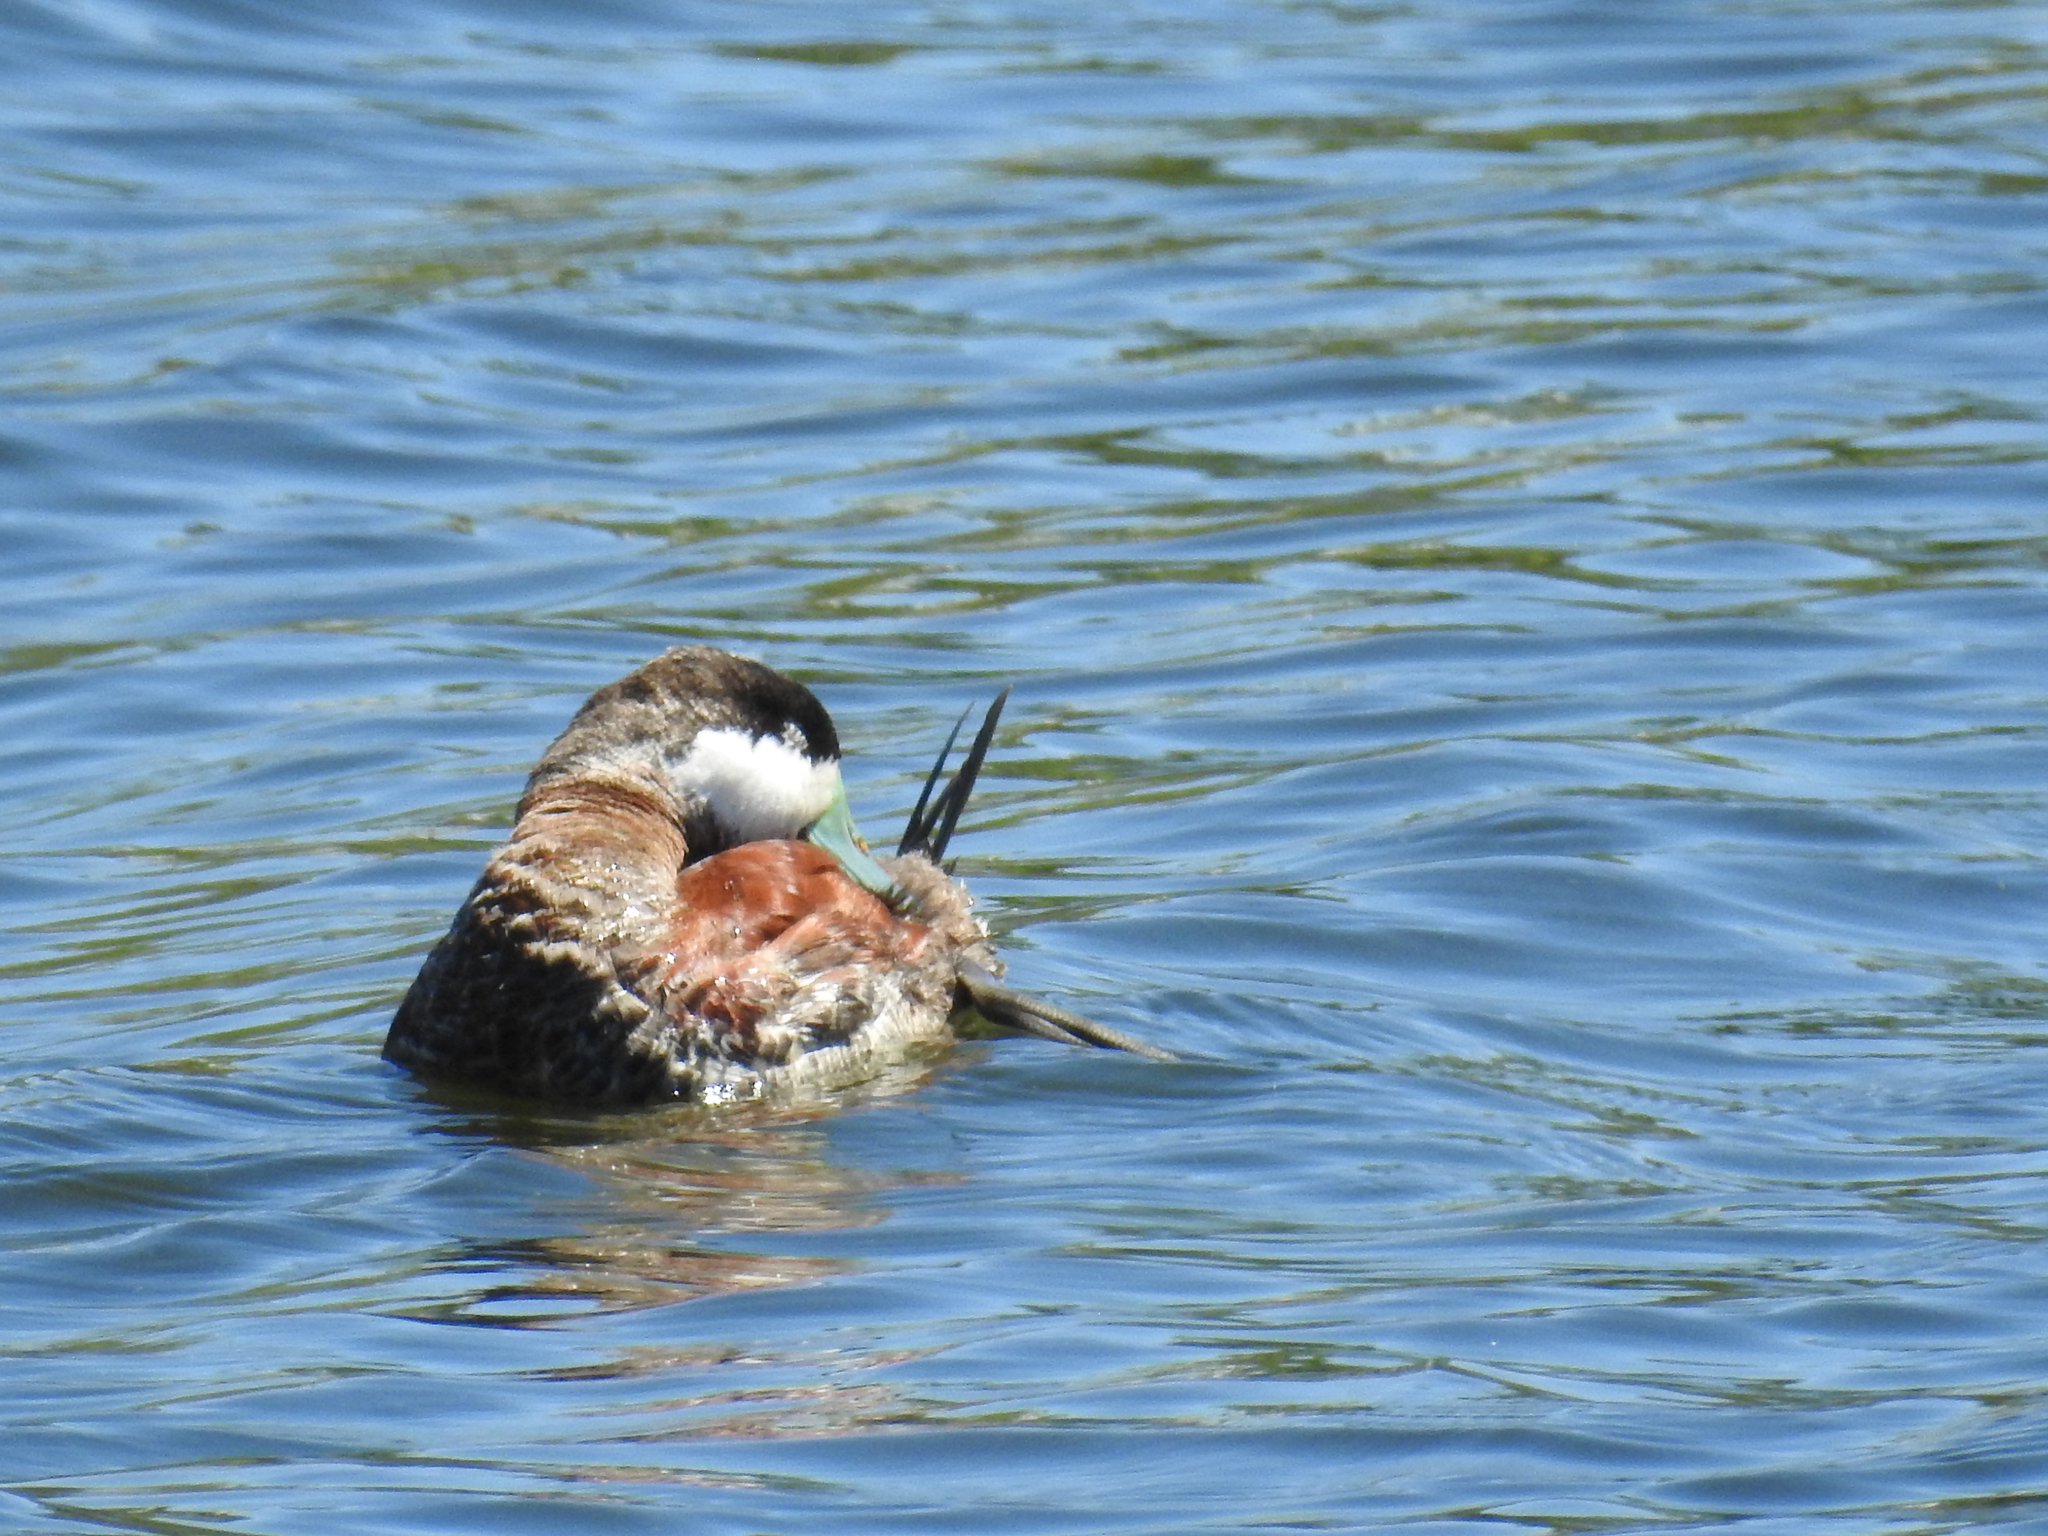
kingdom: Animalia
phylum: Chordata
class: Aves
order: Anseriformes
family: Anatidae
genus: Oxyura
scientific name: Oxyura jamaicensis
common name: Ruddy duck
